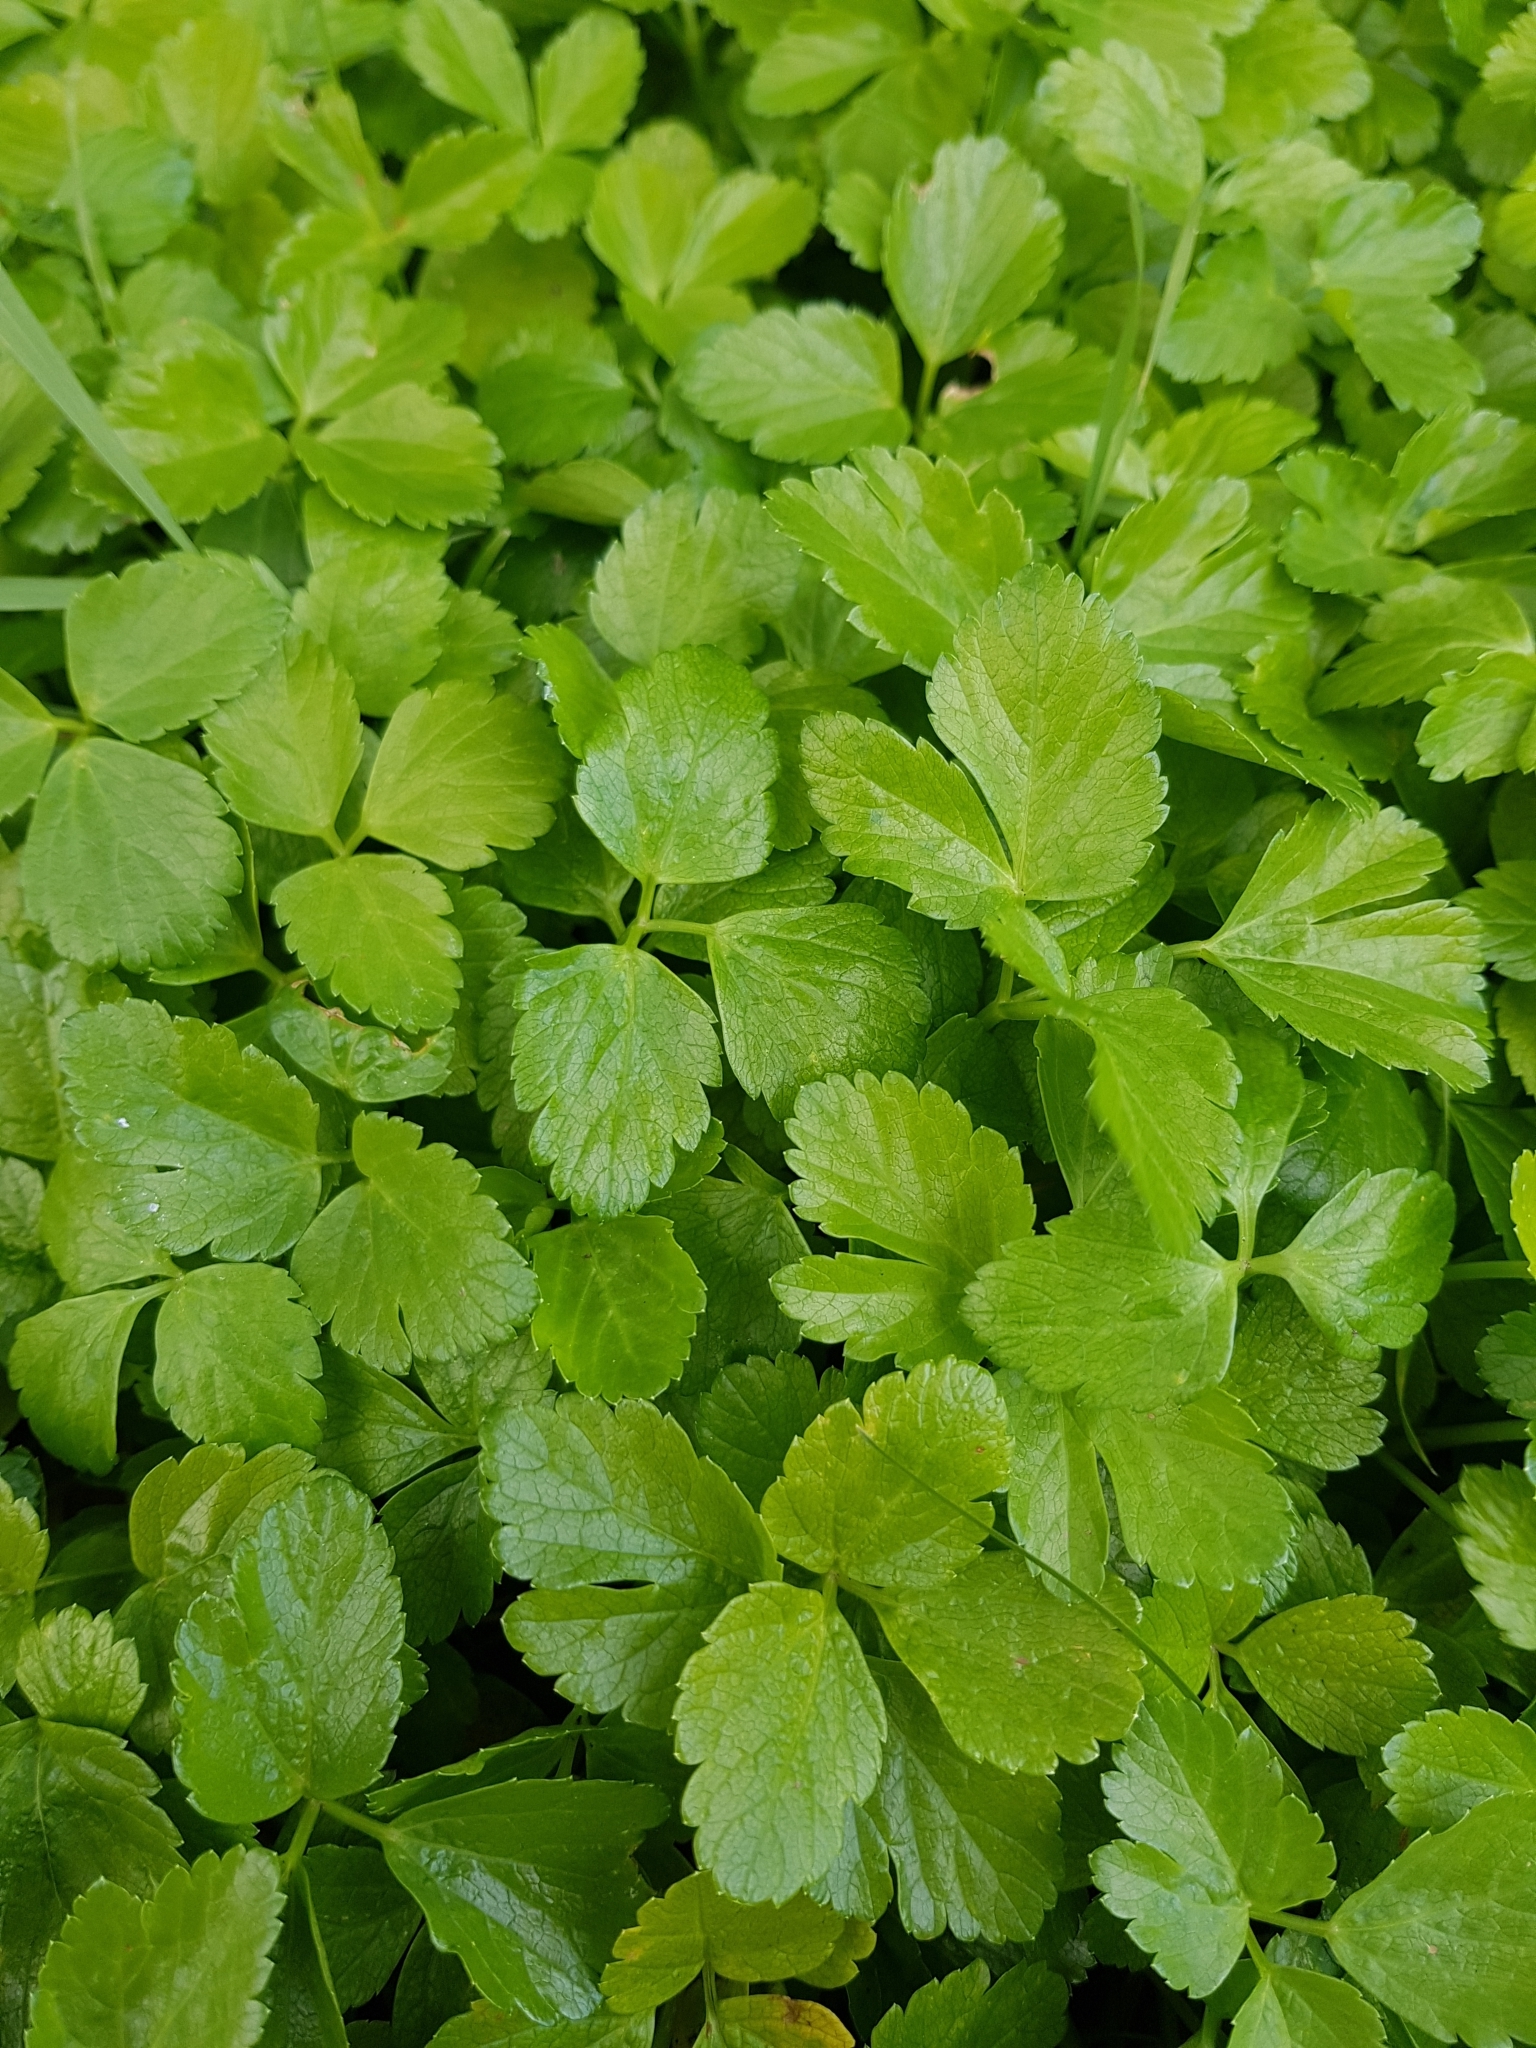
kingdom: Plantae
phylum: Tracheophyta
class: Magnoliopsida
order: Apiales
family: Apiaceae
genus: Smyrnium
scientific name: Smyrnium olusatrum
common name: Alexanders
